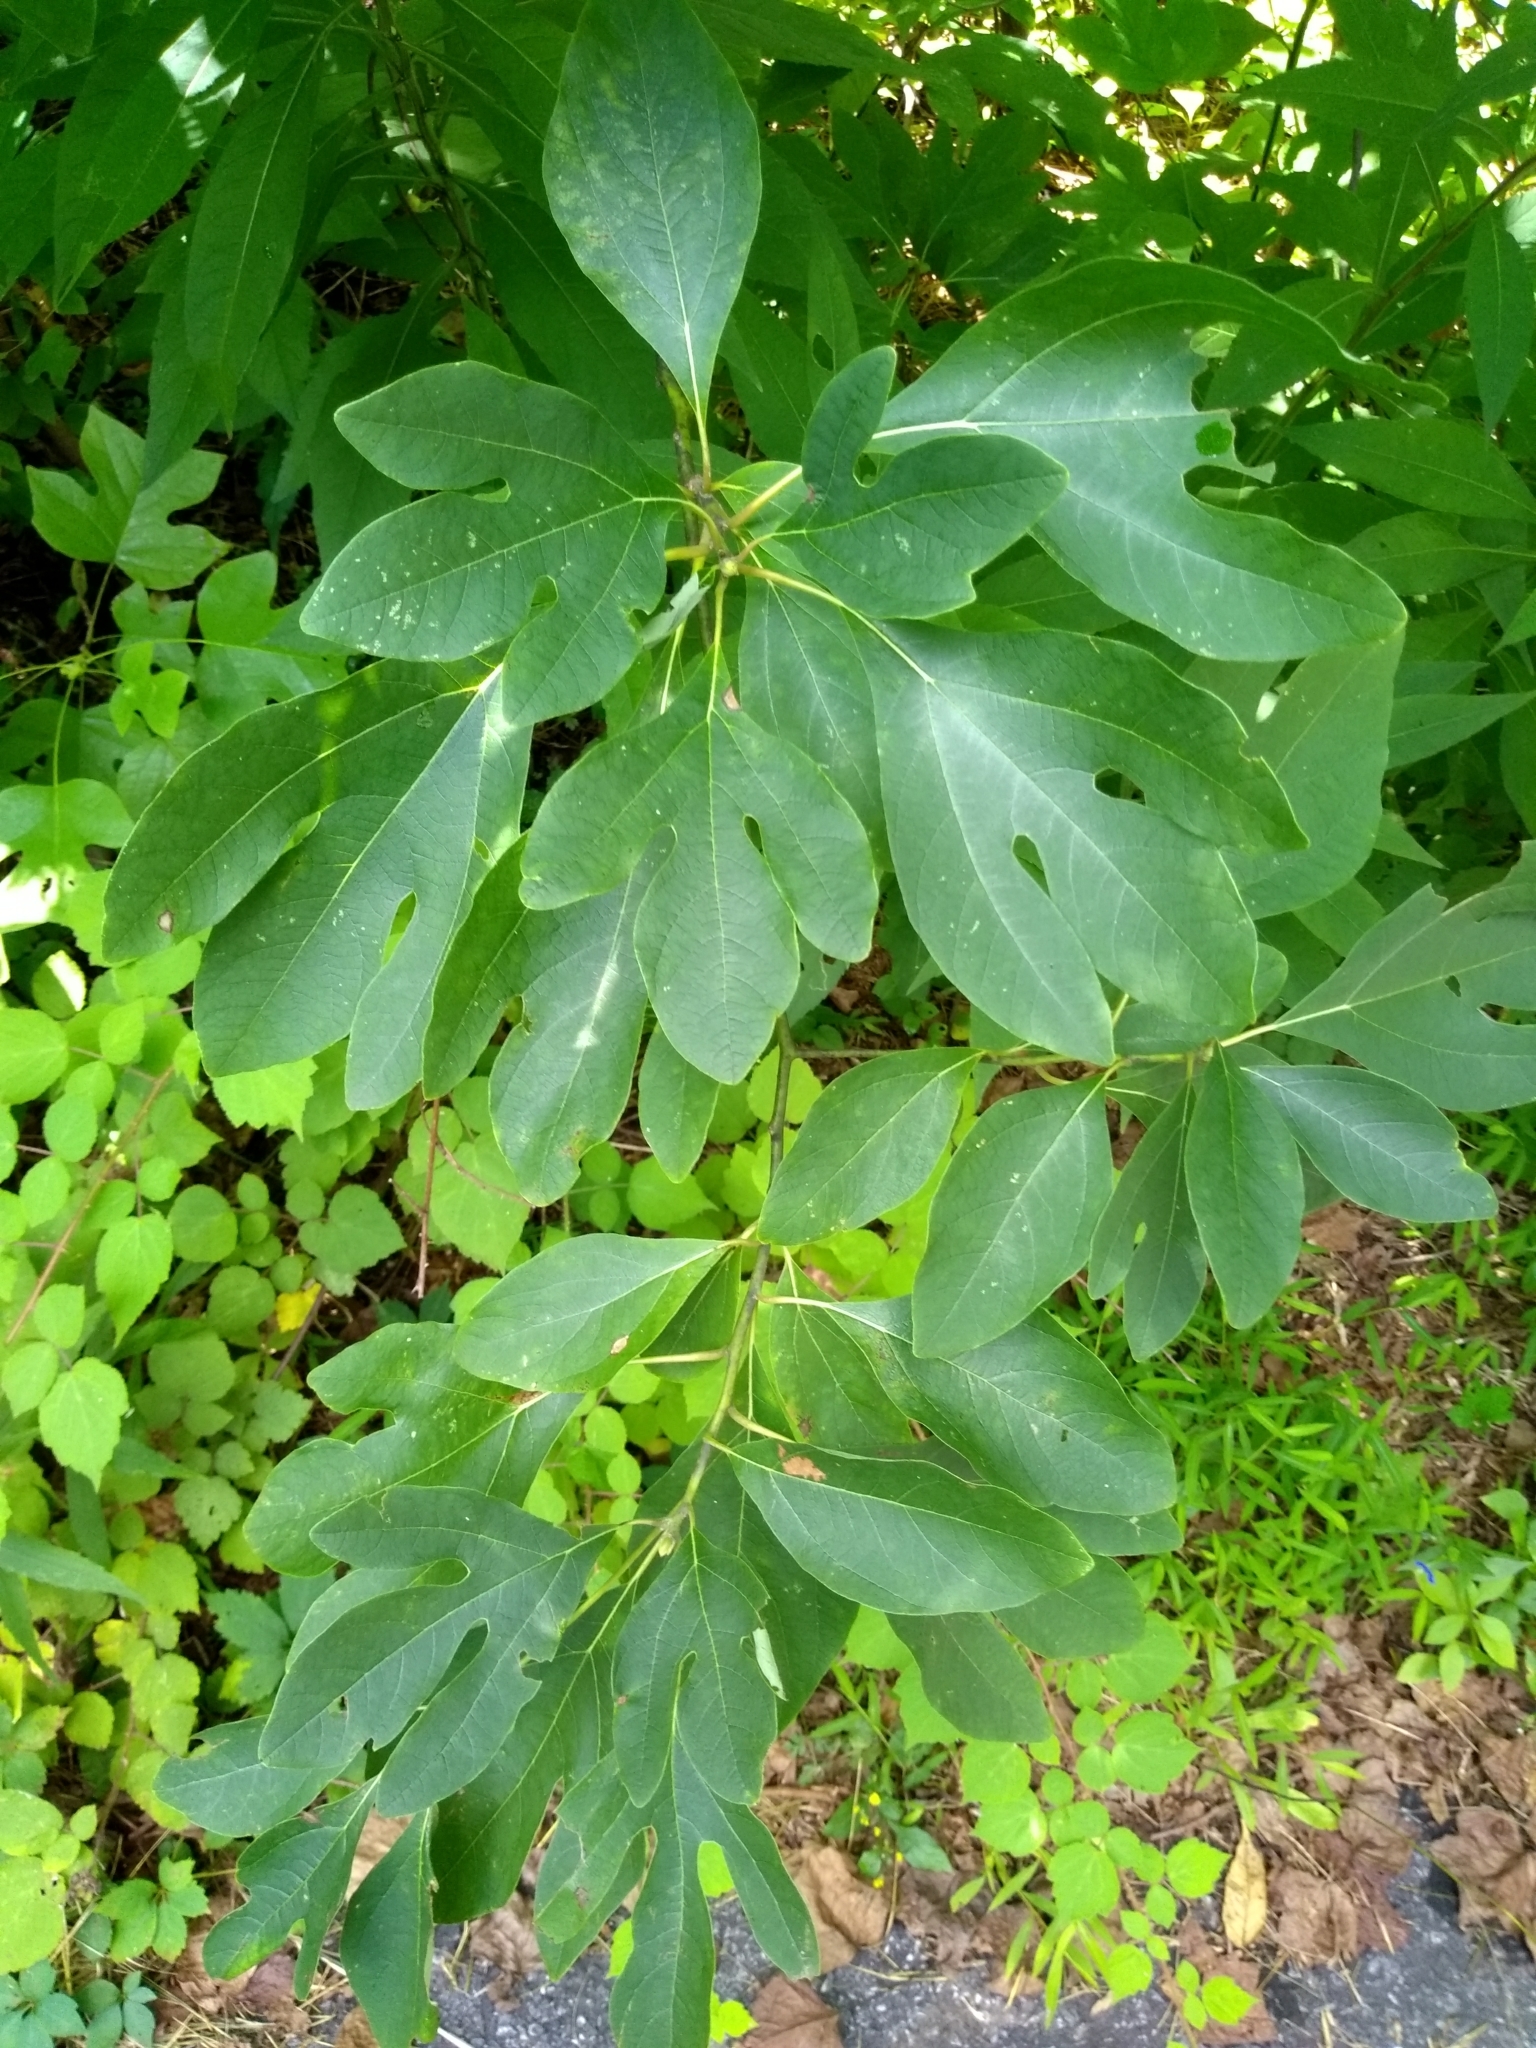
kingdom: Plantae
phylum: Tracheophyta
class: Magnoliopsida
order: Laurales
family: Lauraceae
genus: Sassafras
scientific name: Sassafras albidum
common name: Sassafras
